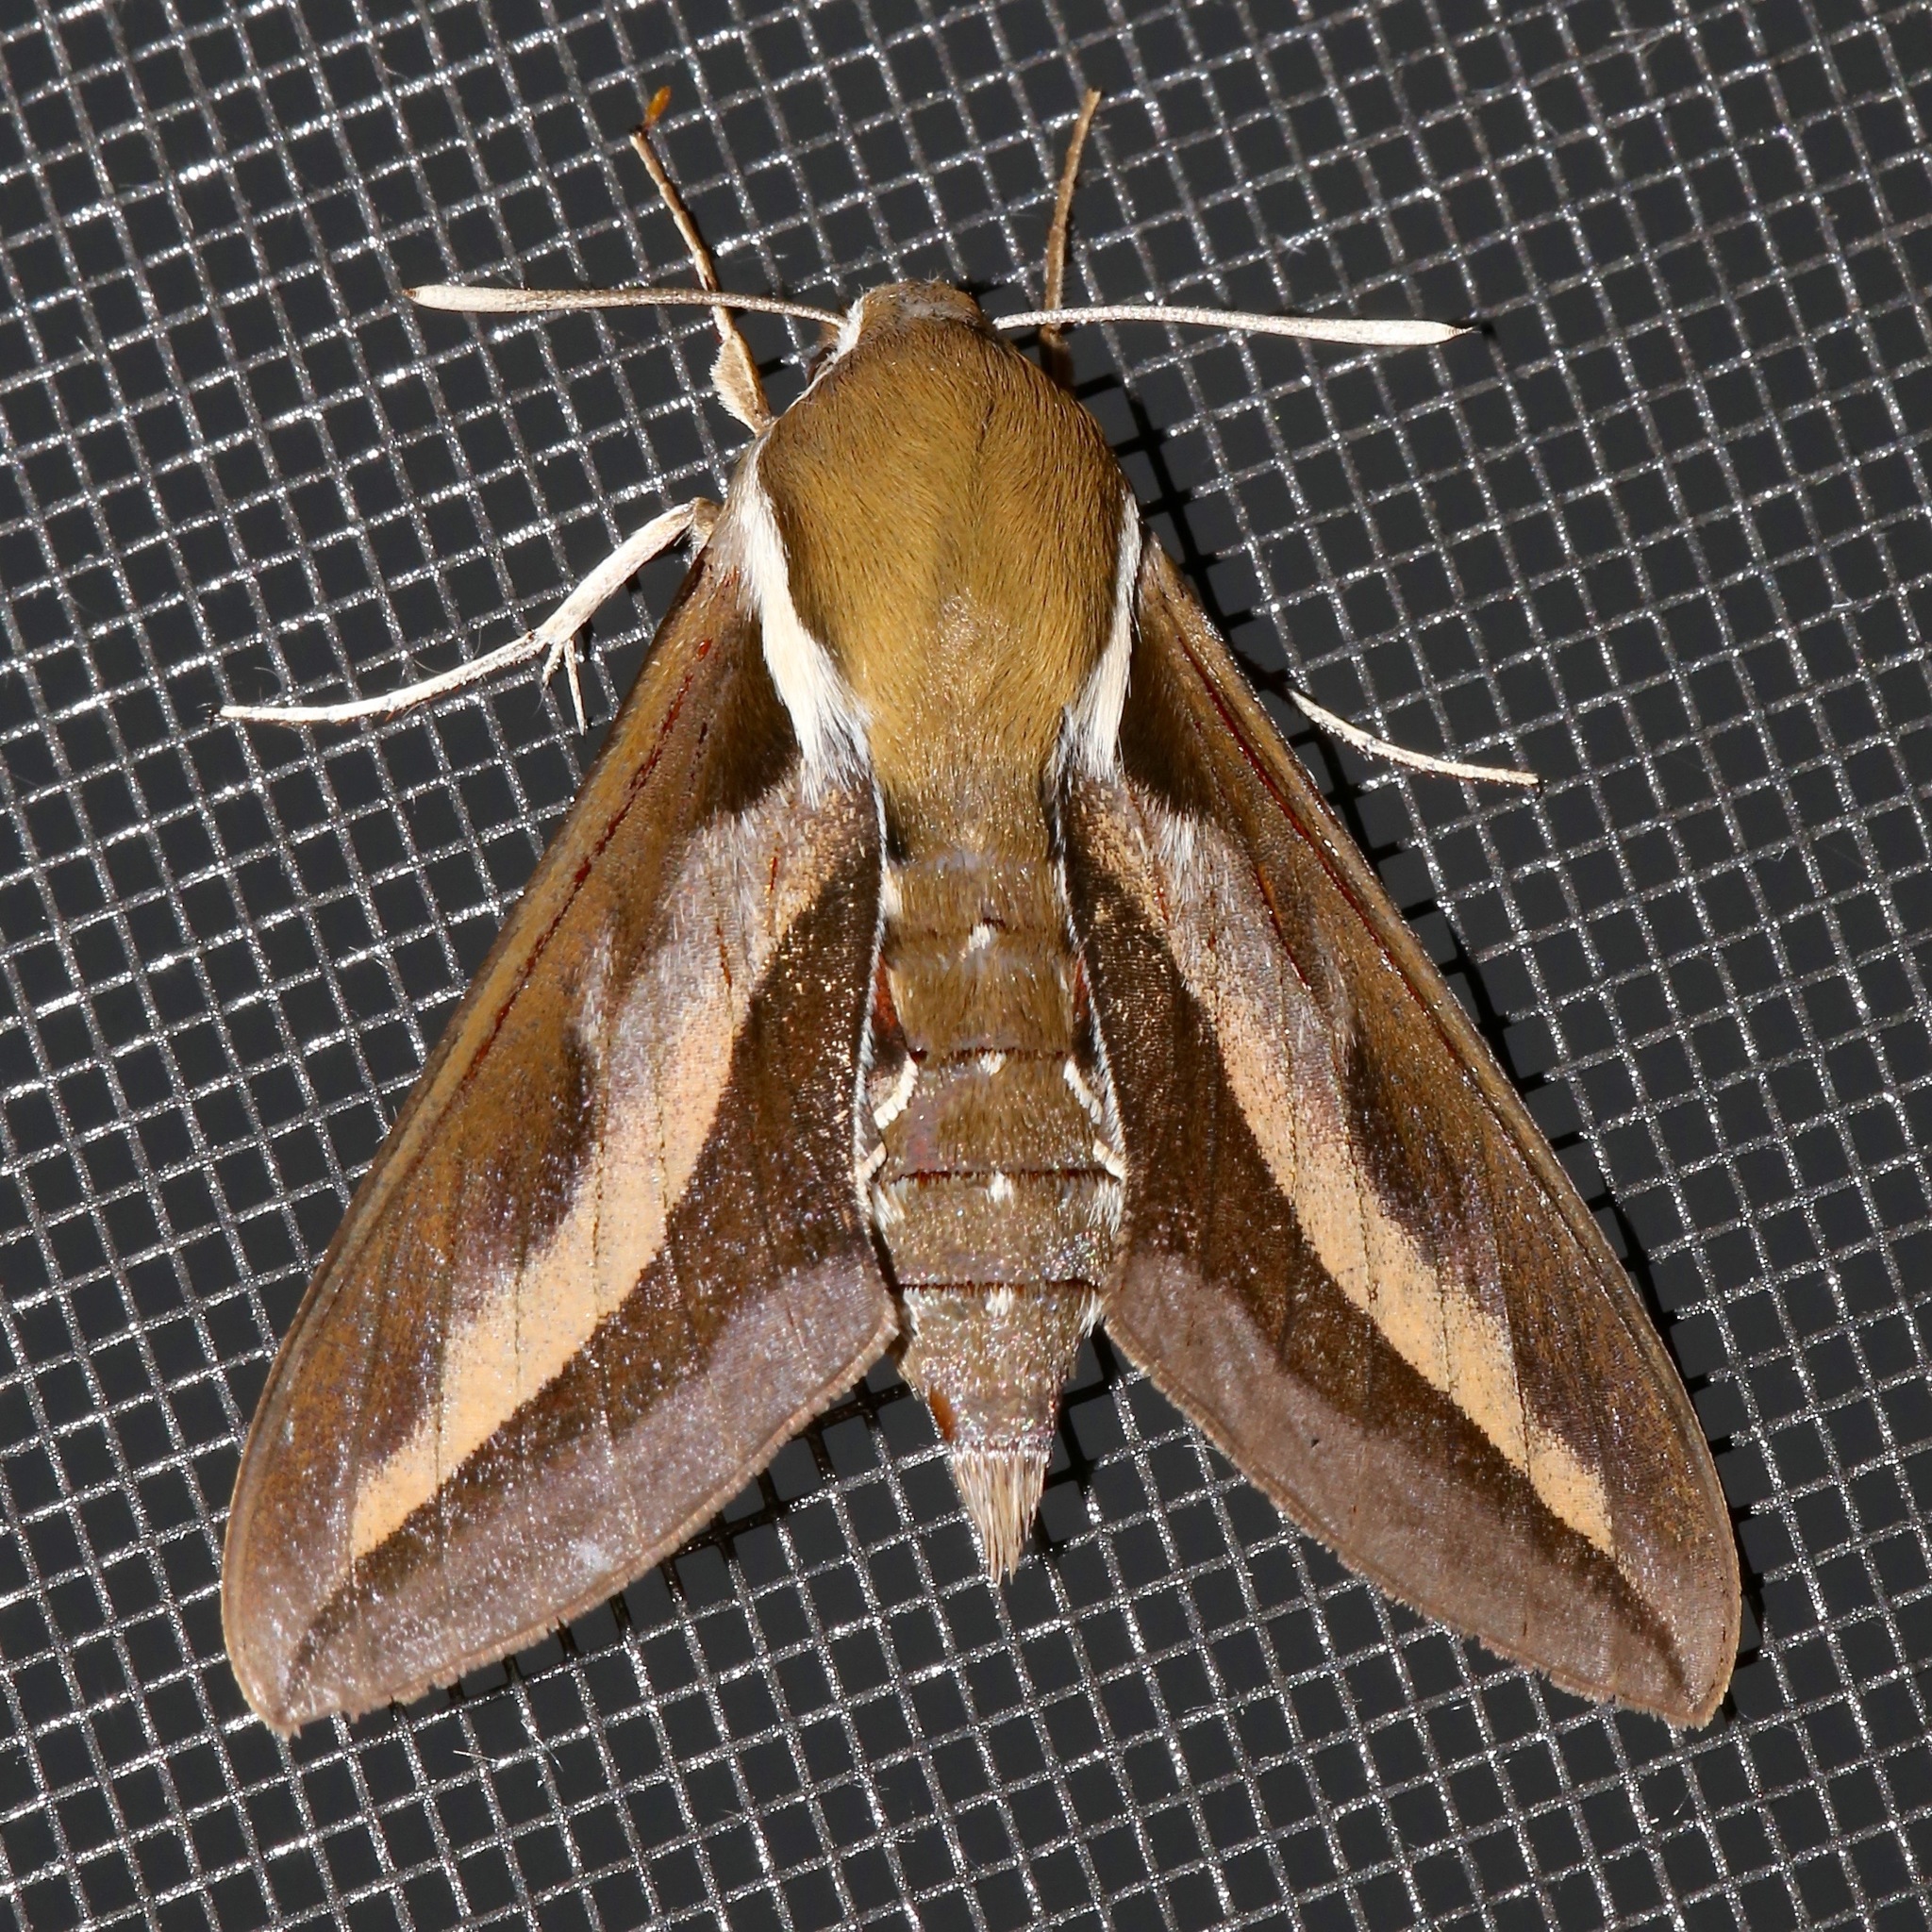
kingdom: Animalia
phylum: Arthropoda
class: Insecta
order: Lepidoptera
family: Sphingidae
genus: Hyles
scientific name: Hyles gallii
